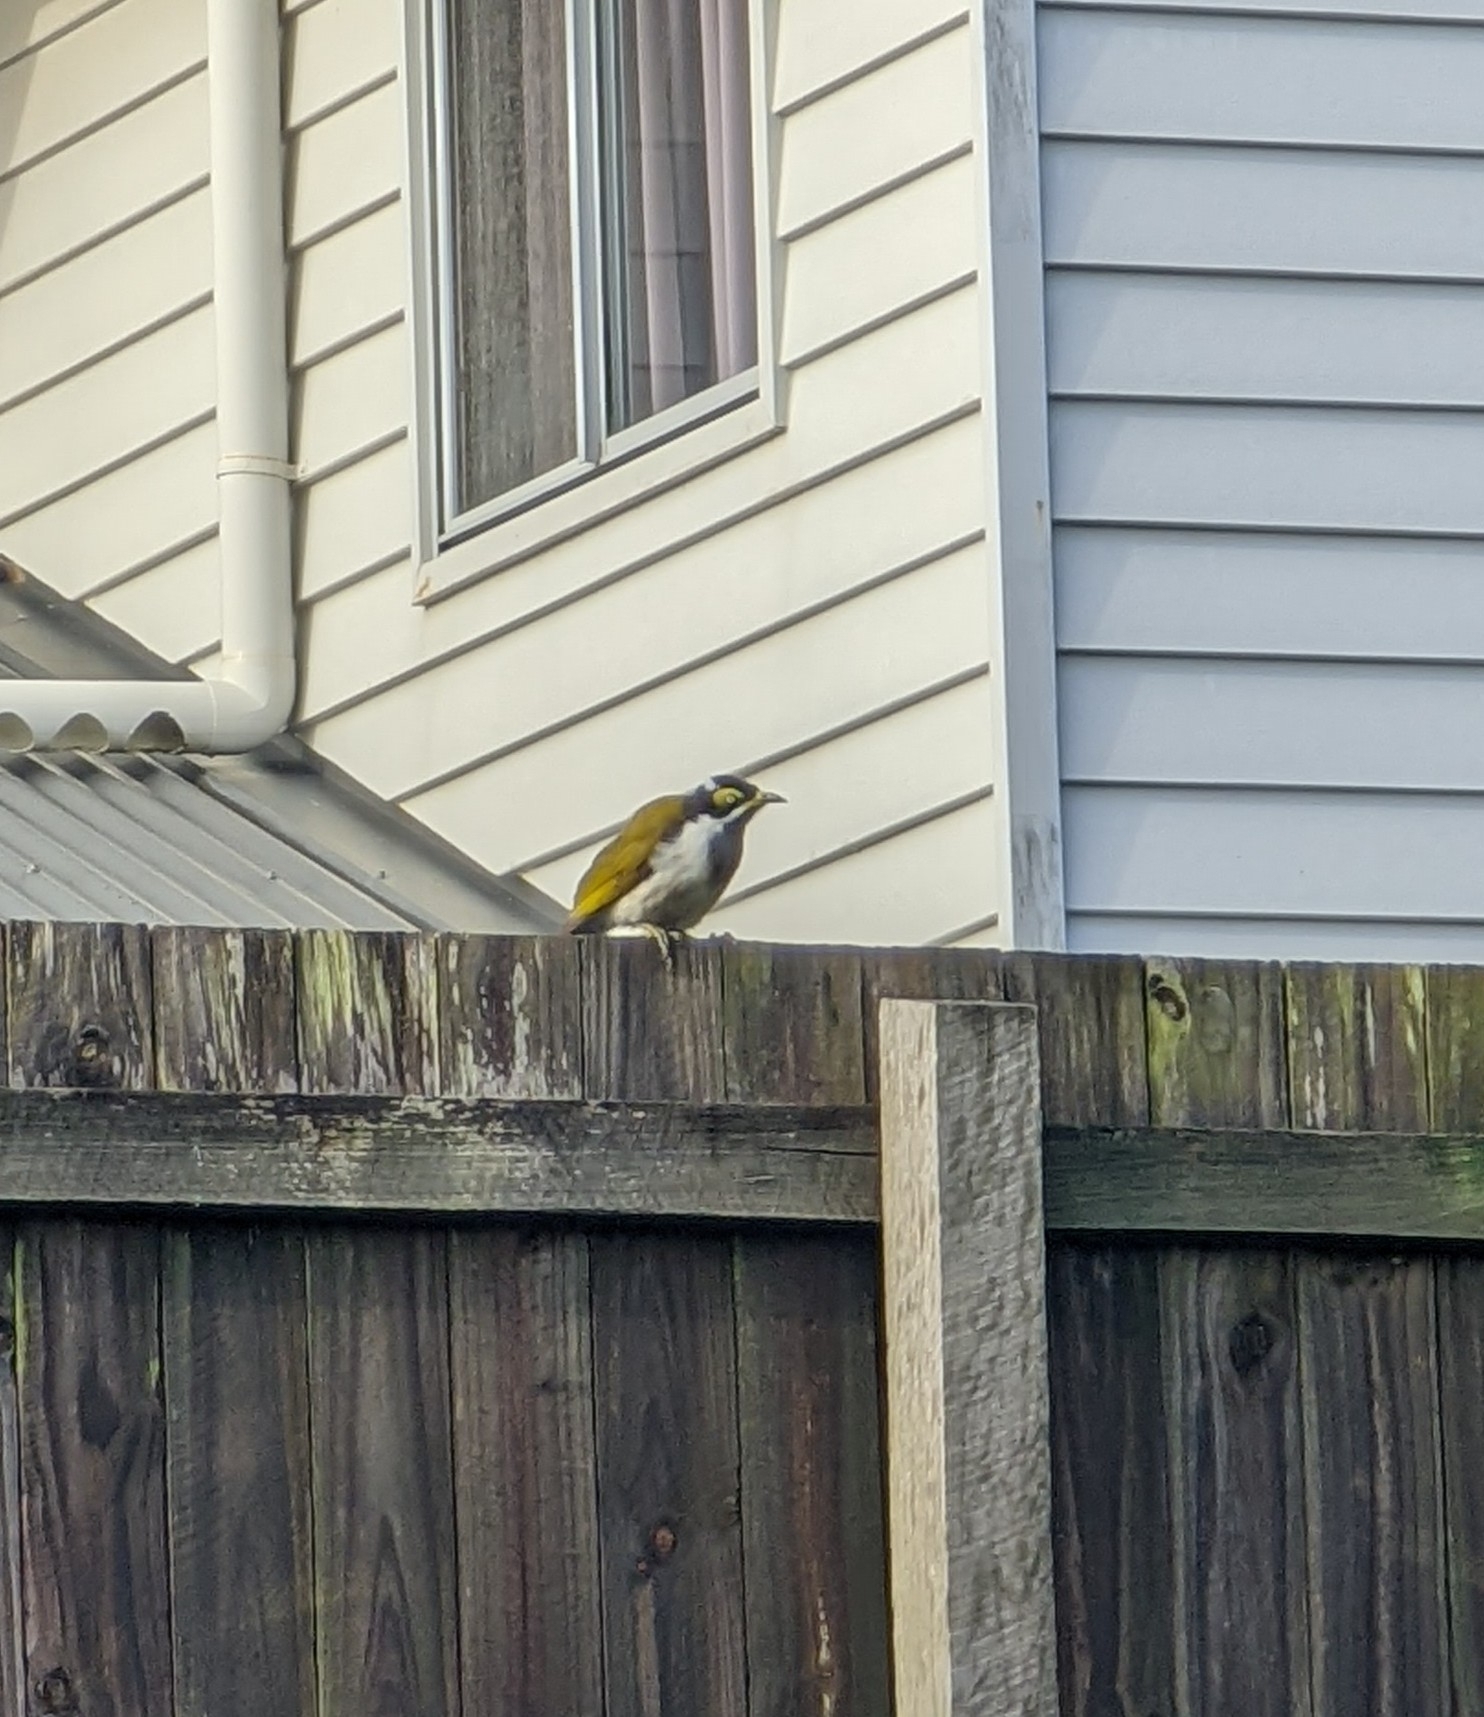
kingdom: Animalia
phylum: Chordata
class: Aves
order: Passeriformes
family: Meliphagidae
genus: Entomyzon
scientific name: Entomyzon cyanotis
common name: Blue-faced honeyeater
